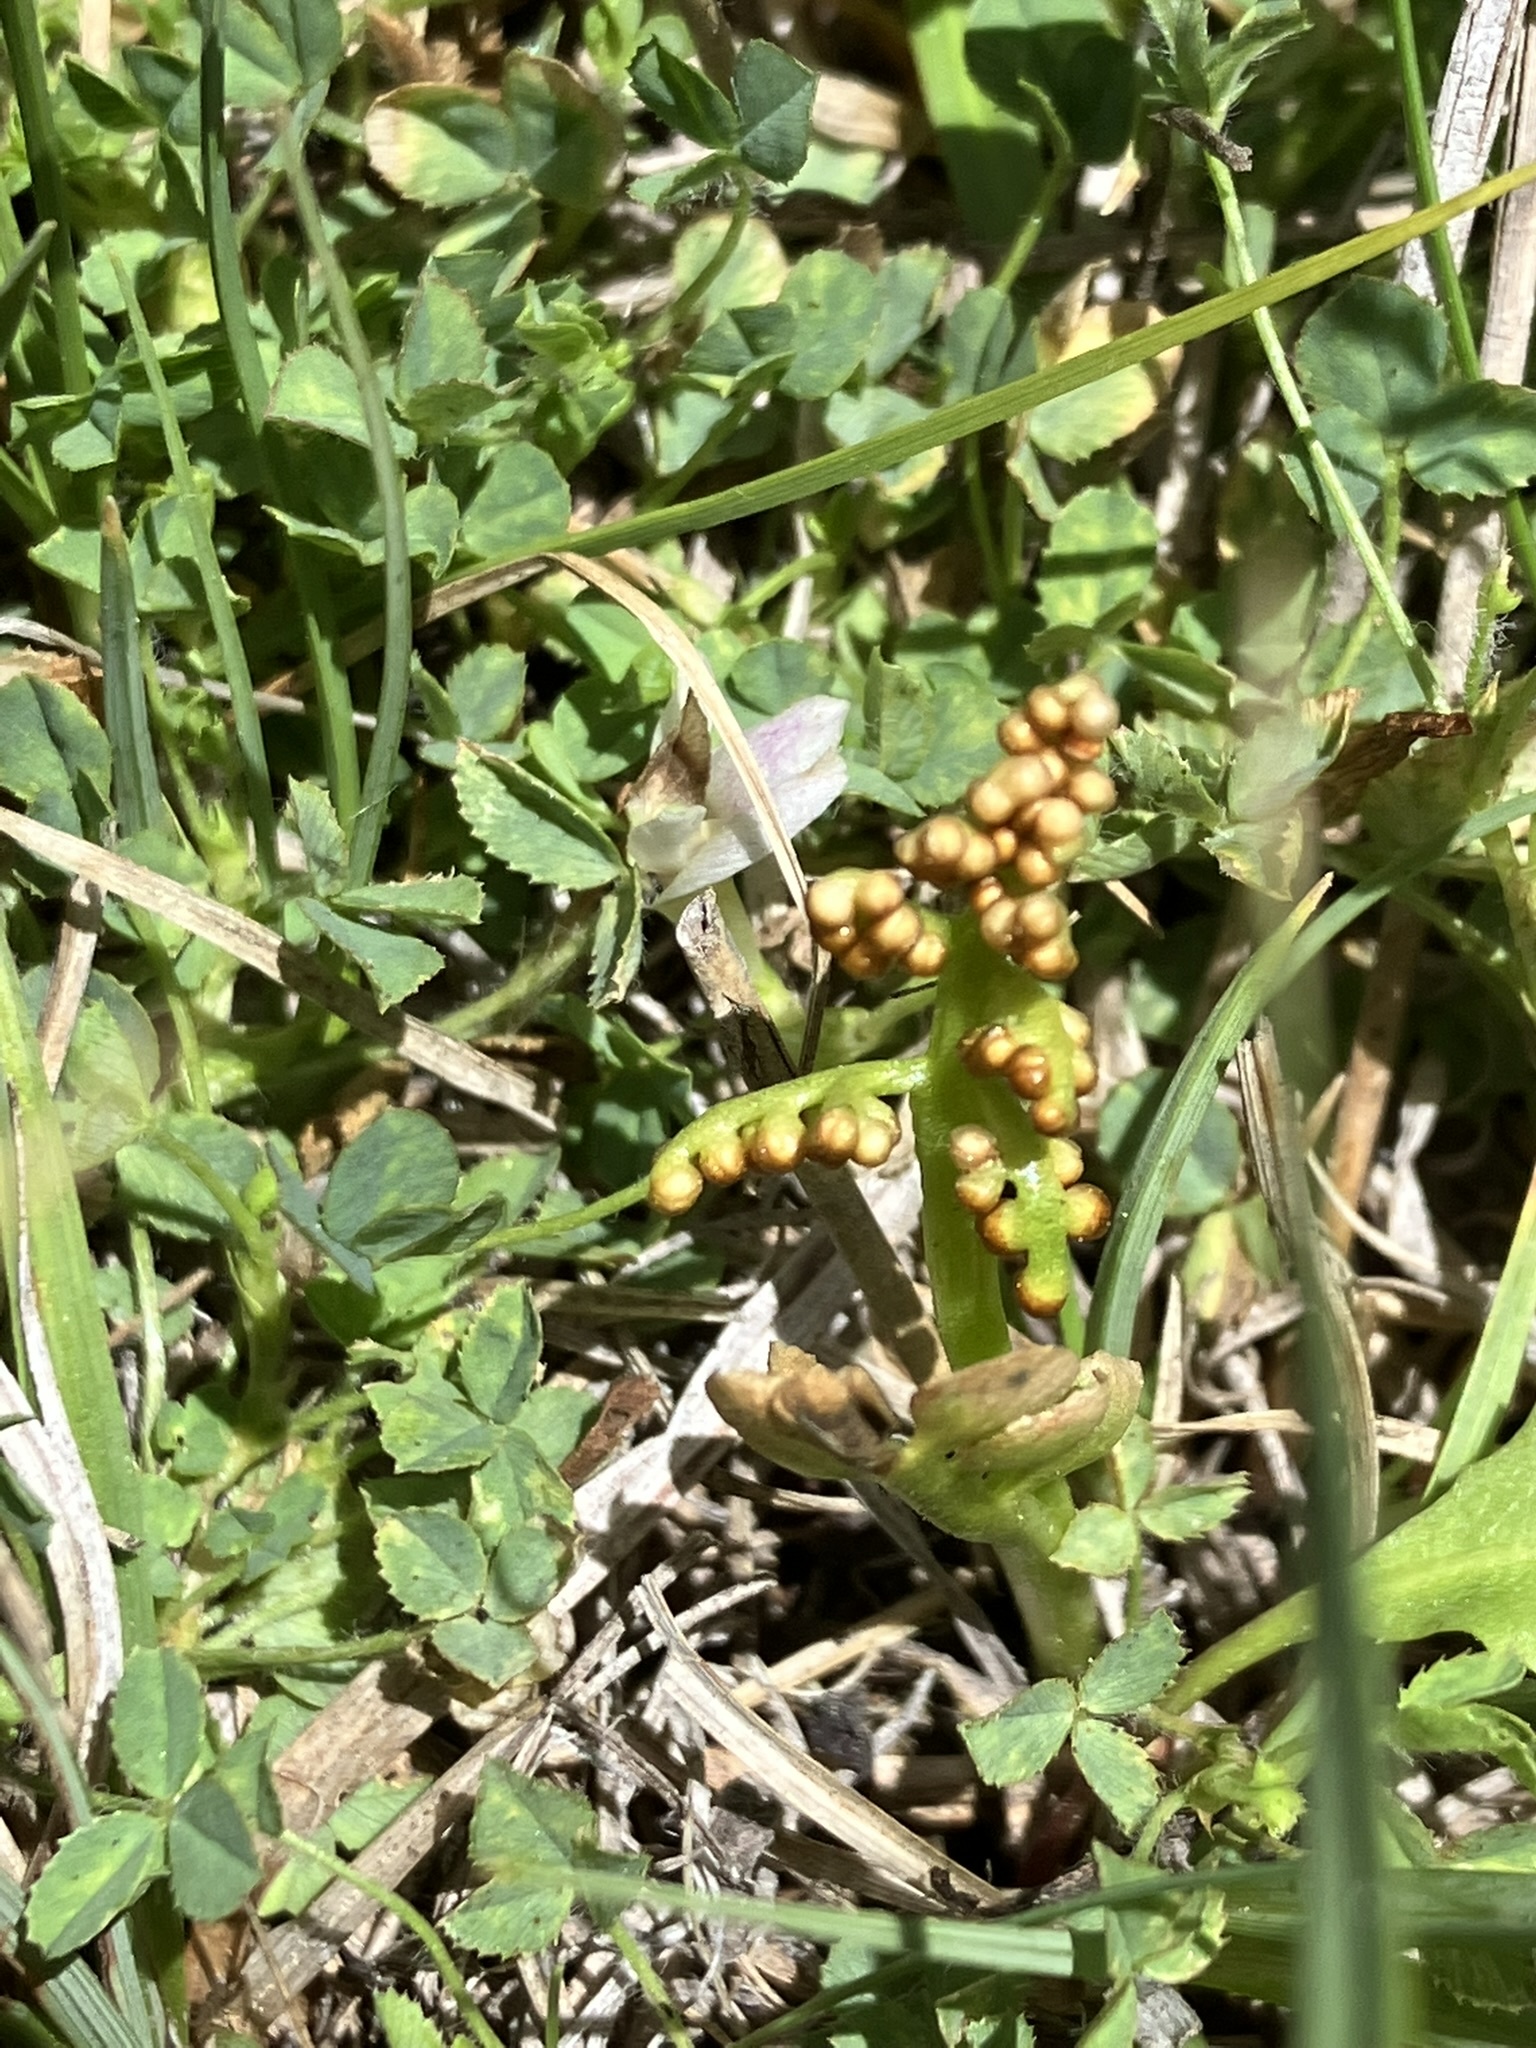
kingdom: Plantae
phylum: Tracheophyta
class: Polypodiopsida
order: Ophioglossales
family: Ophioglossaceae
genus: Botrychium
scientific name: Botrychium crenulatum
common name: Crenulate moonwort
